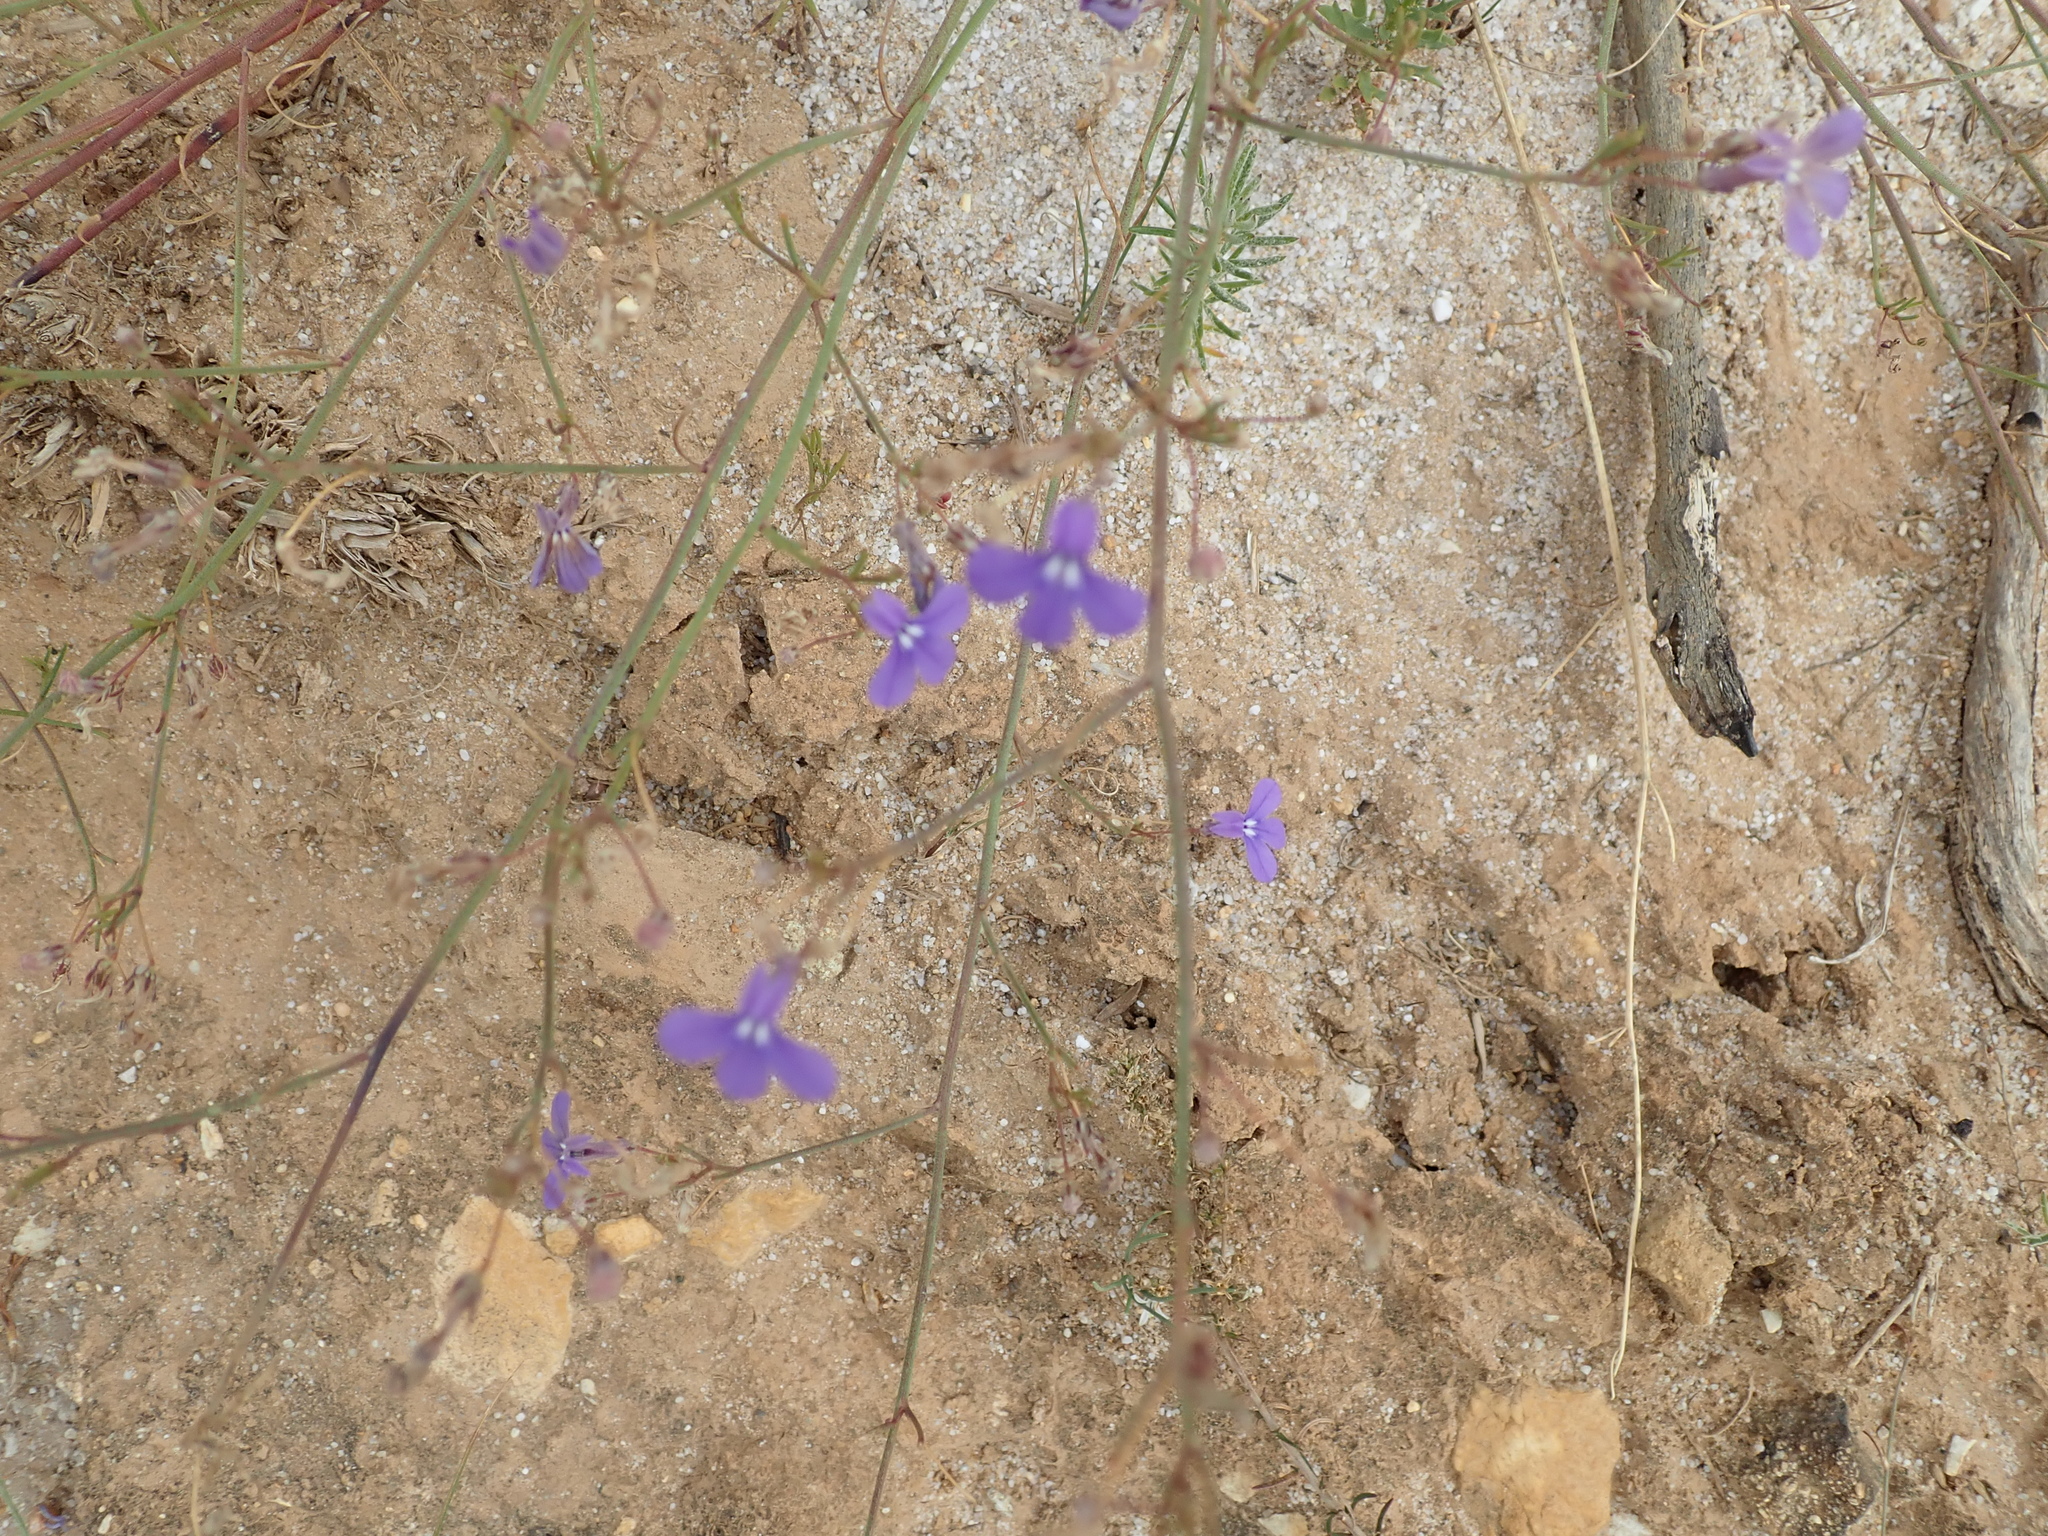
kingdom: Plantae
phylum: Tracheophyta
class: Magnoliopsida
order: Asterales
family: Campanulaceae
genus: Lobelia
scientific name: Lobelia setacea
